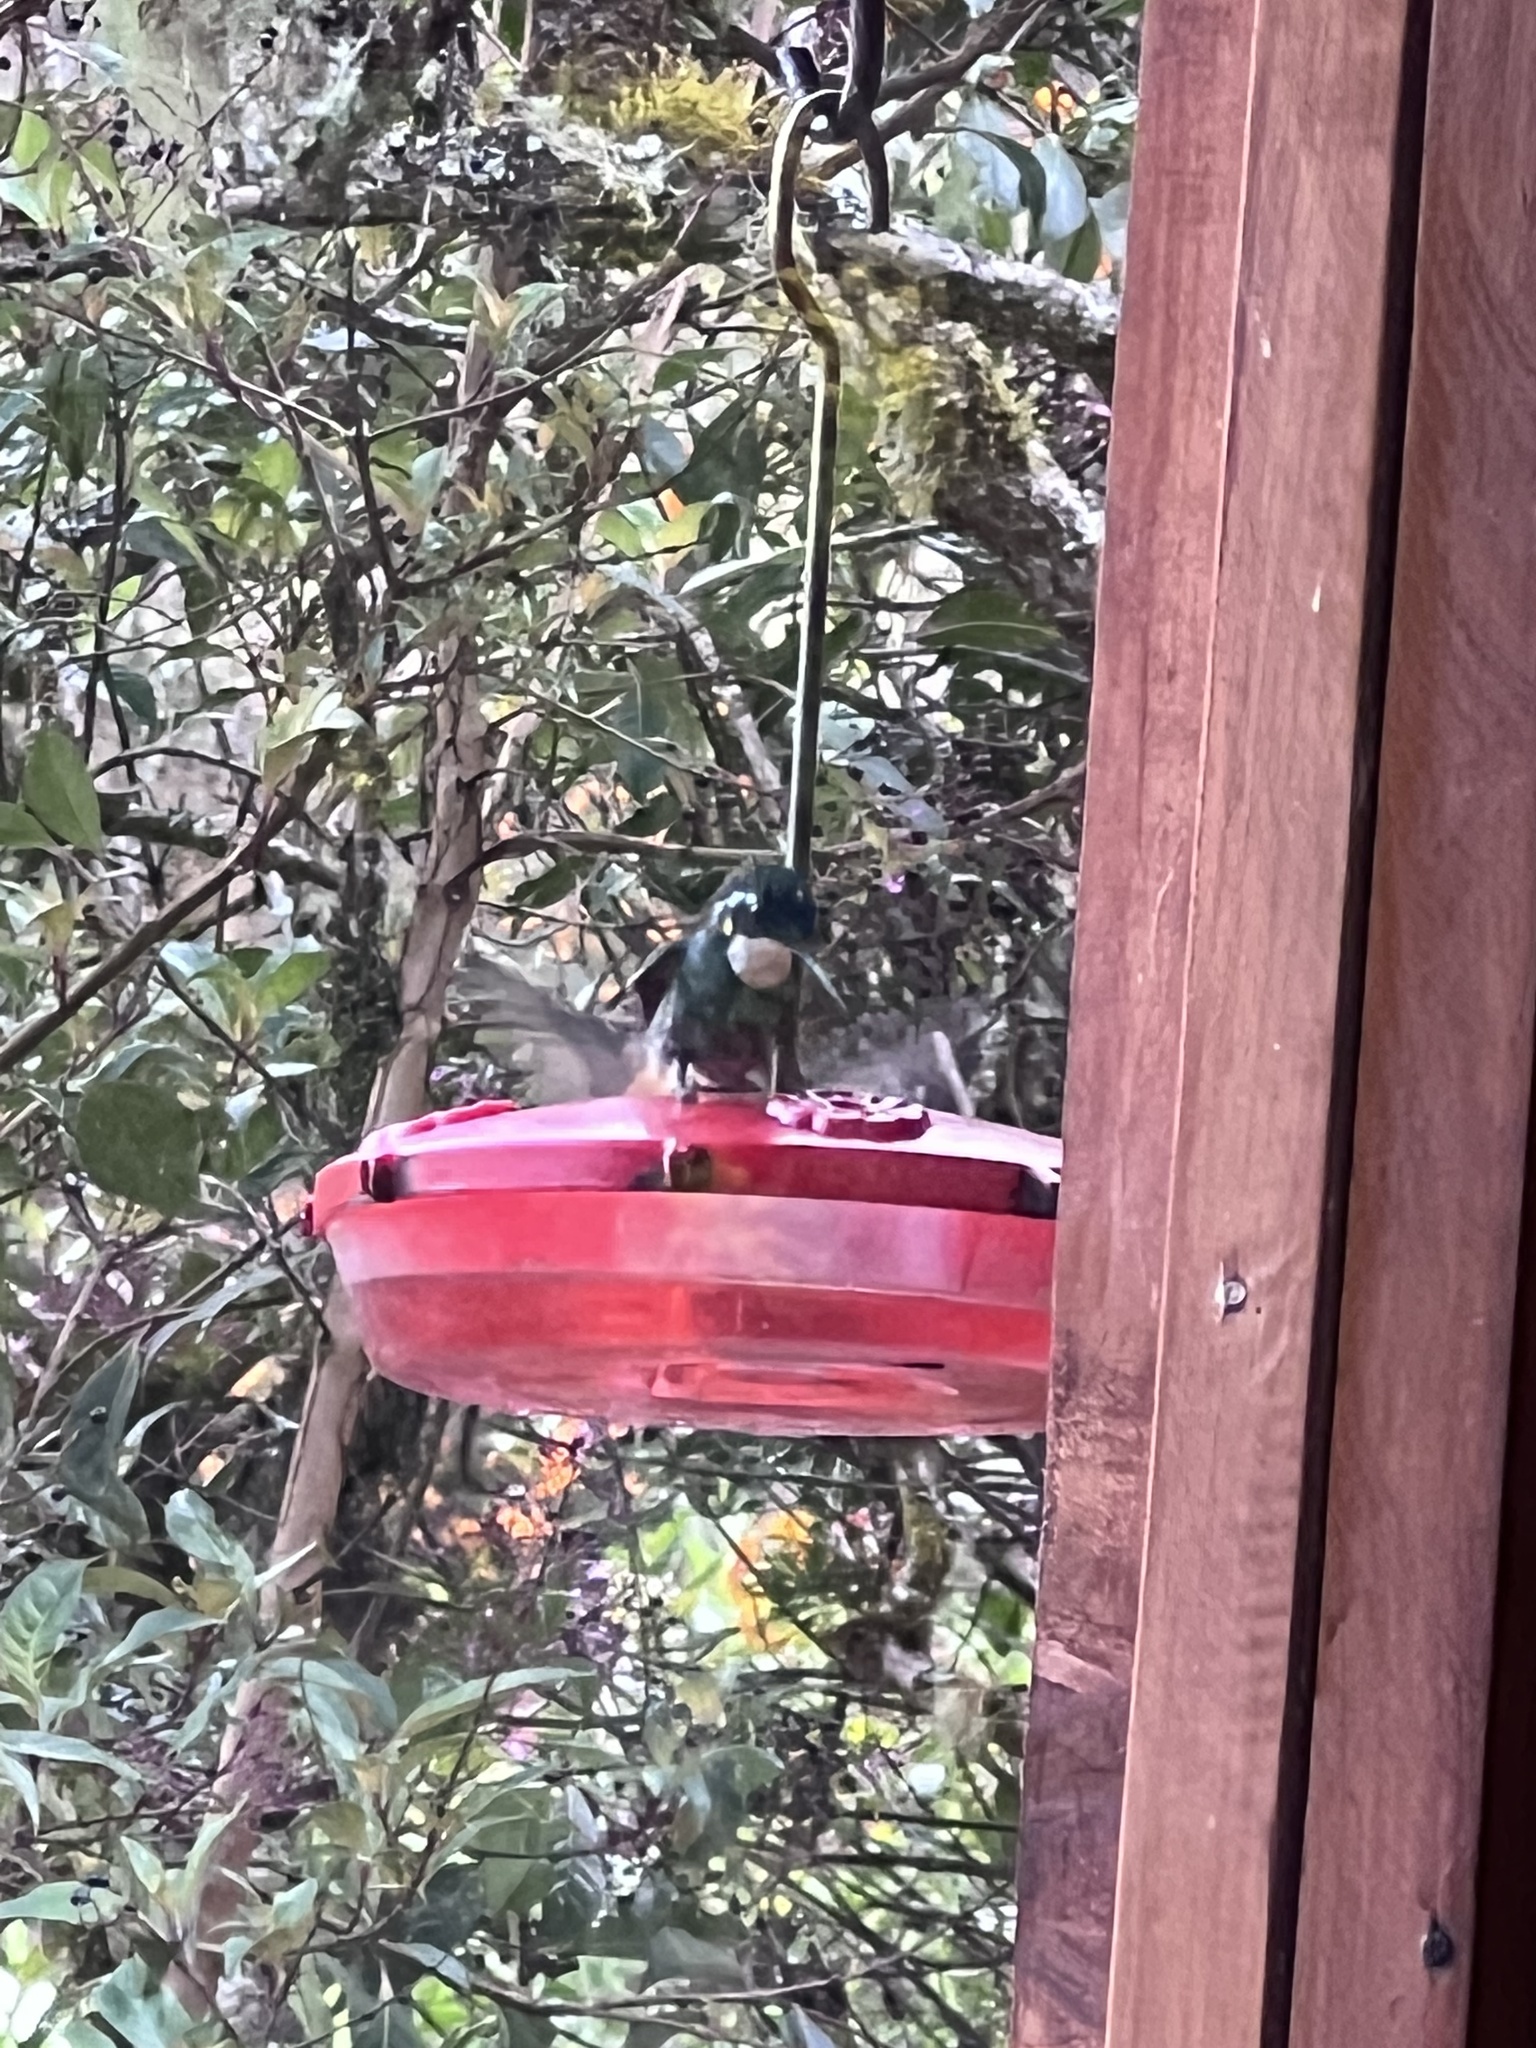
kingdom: Animalia
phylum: Chordata
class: Aves
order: Apodiformes
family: Trochilidae
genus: Lampornis
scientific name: Lampornis castaneoventris
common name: White-throated mountain-gem
